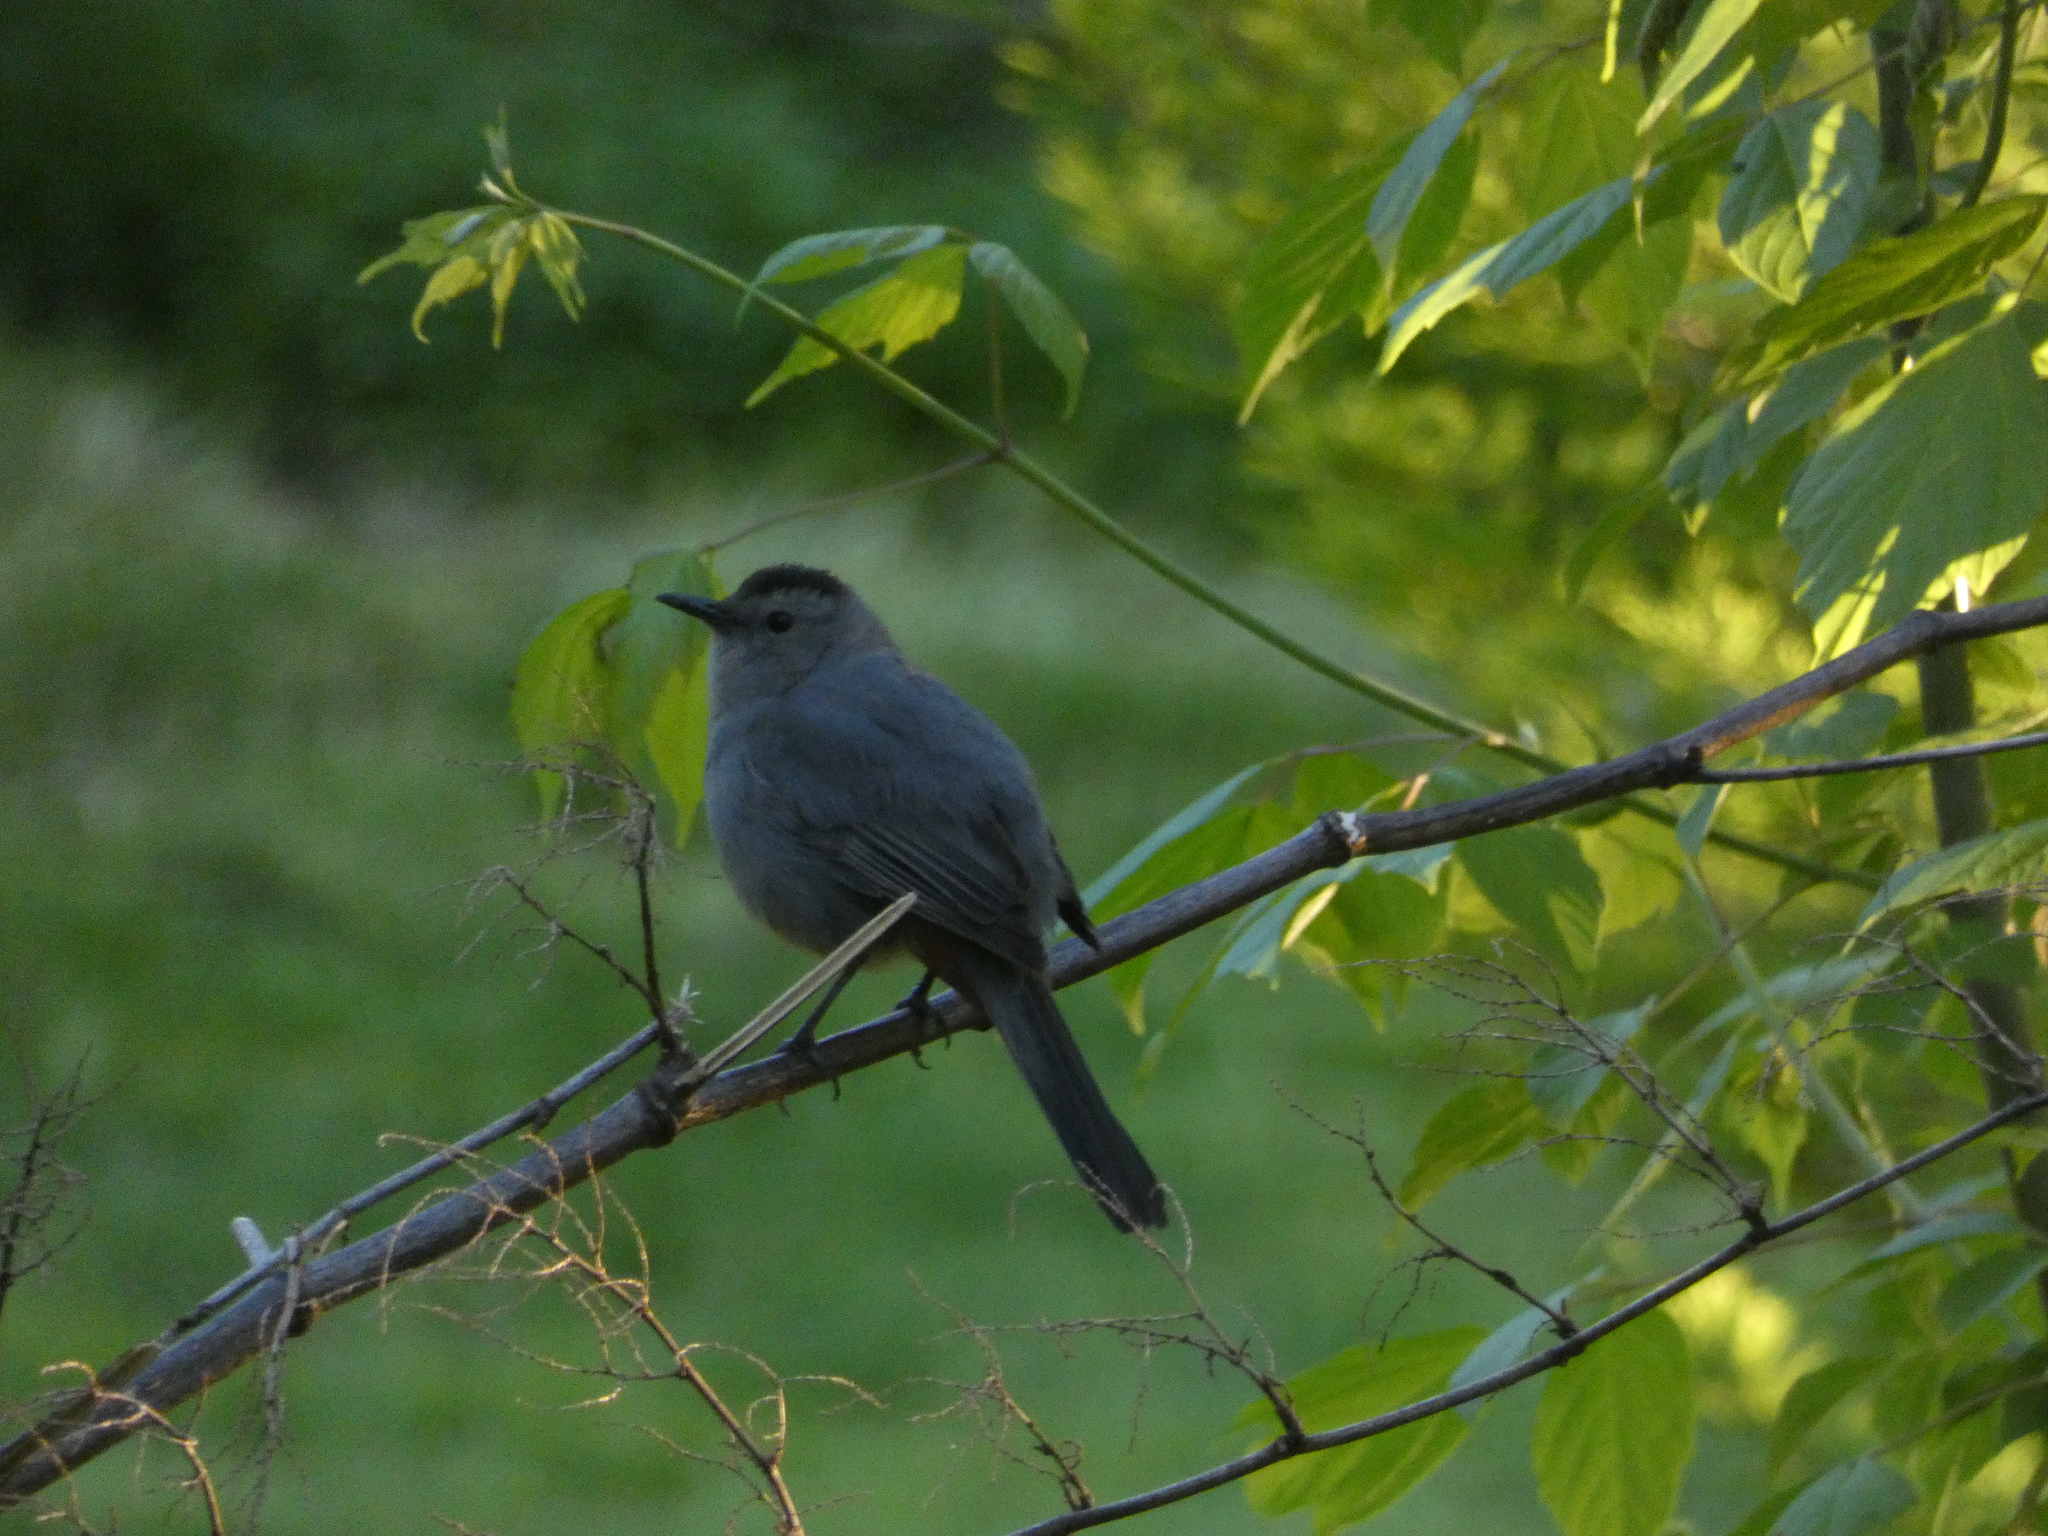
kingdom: Animalia
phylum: Chordata
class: Aves
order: Passeriformes
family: Mimidae
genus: Dumetella
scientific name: Dumetella carolinensis
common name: Gray catbird
